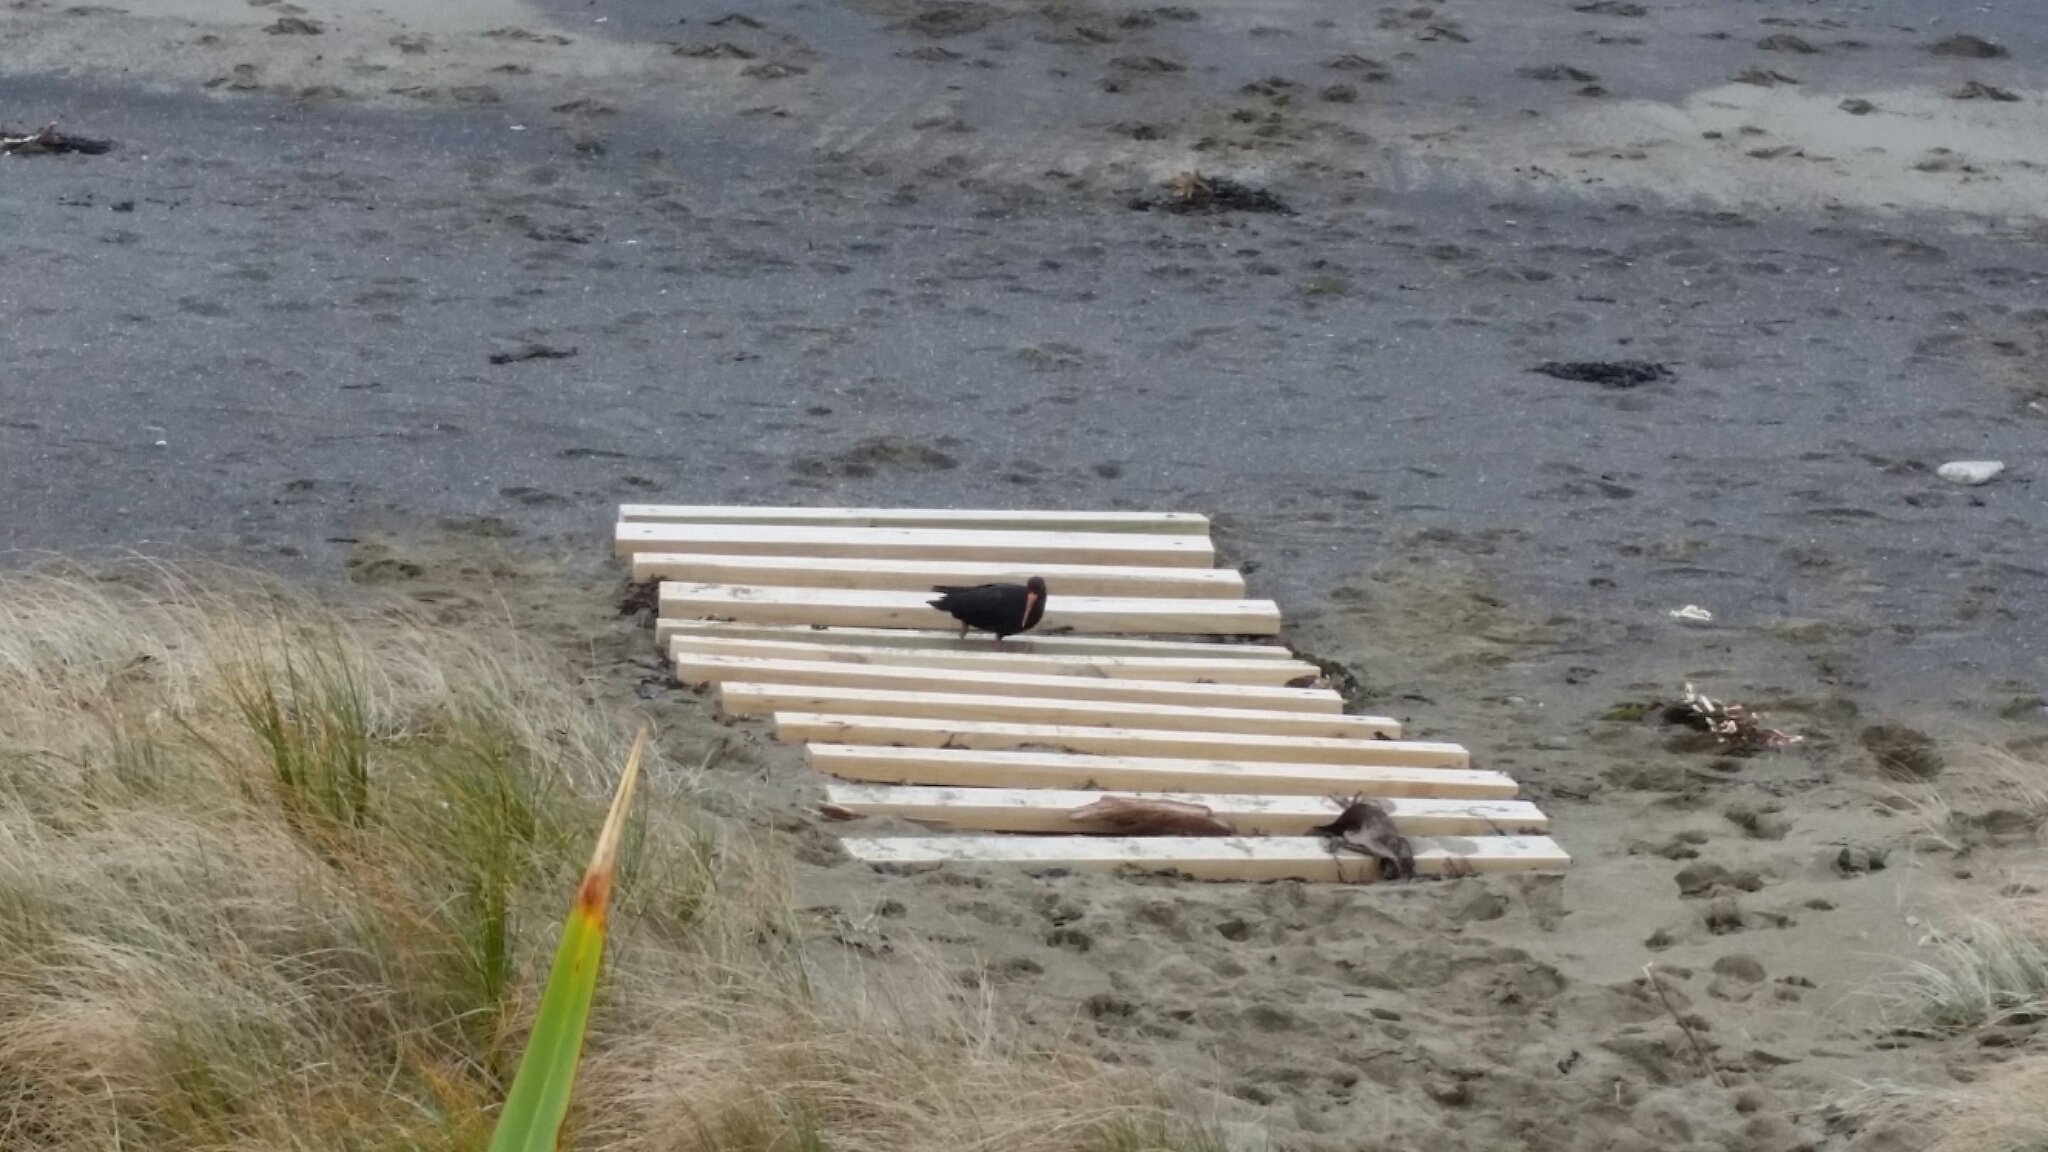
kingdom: Animalia
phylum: Chordata
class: Aves
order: Charadriiformes
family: Haematopodidae
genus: Haematopus
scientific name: Haematopus unicolor
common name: Variable oystercatcher
